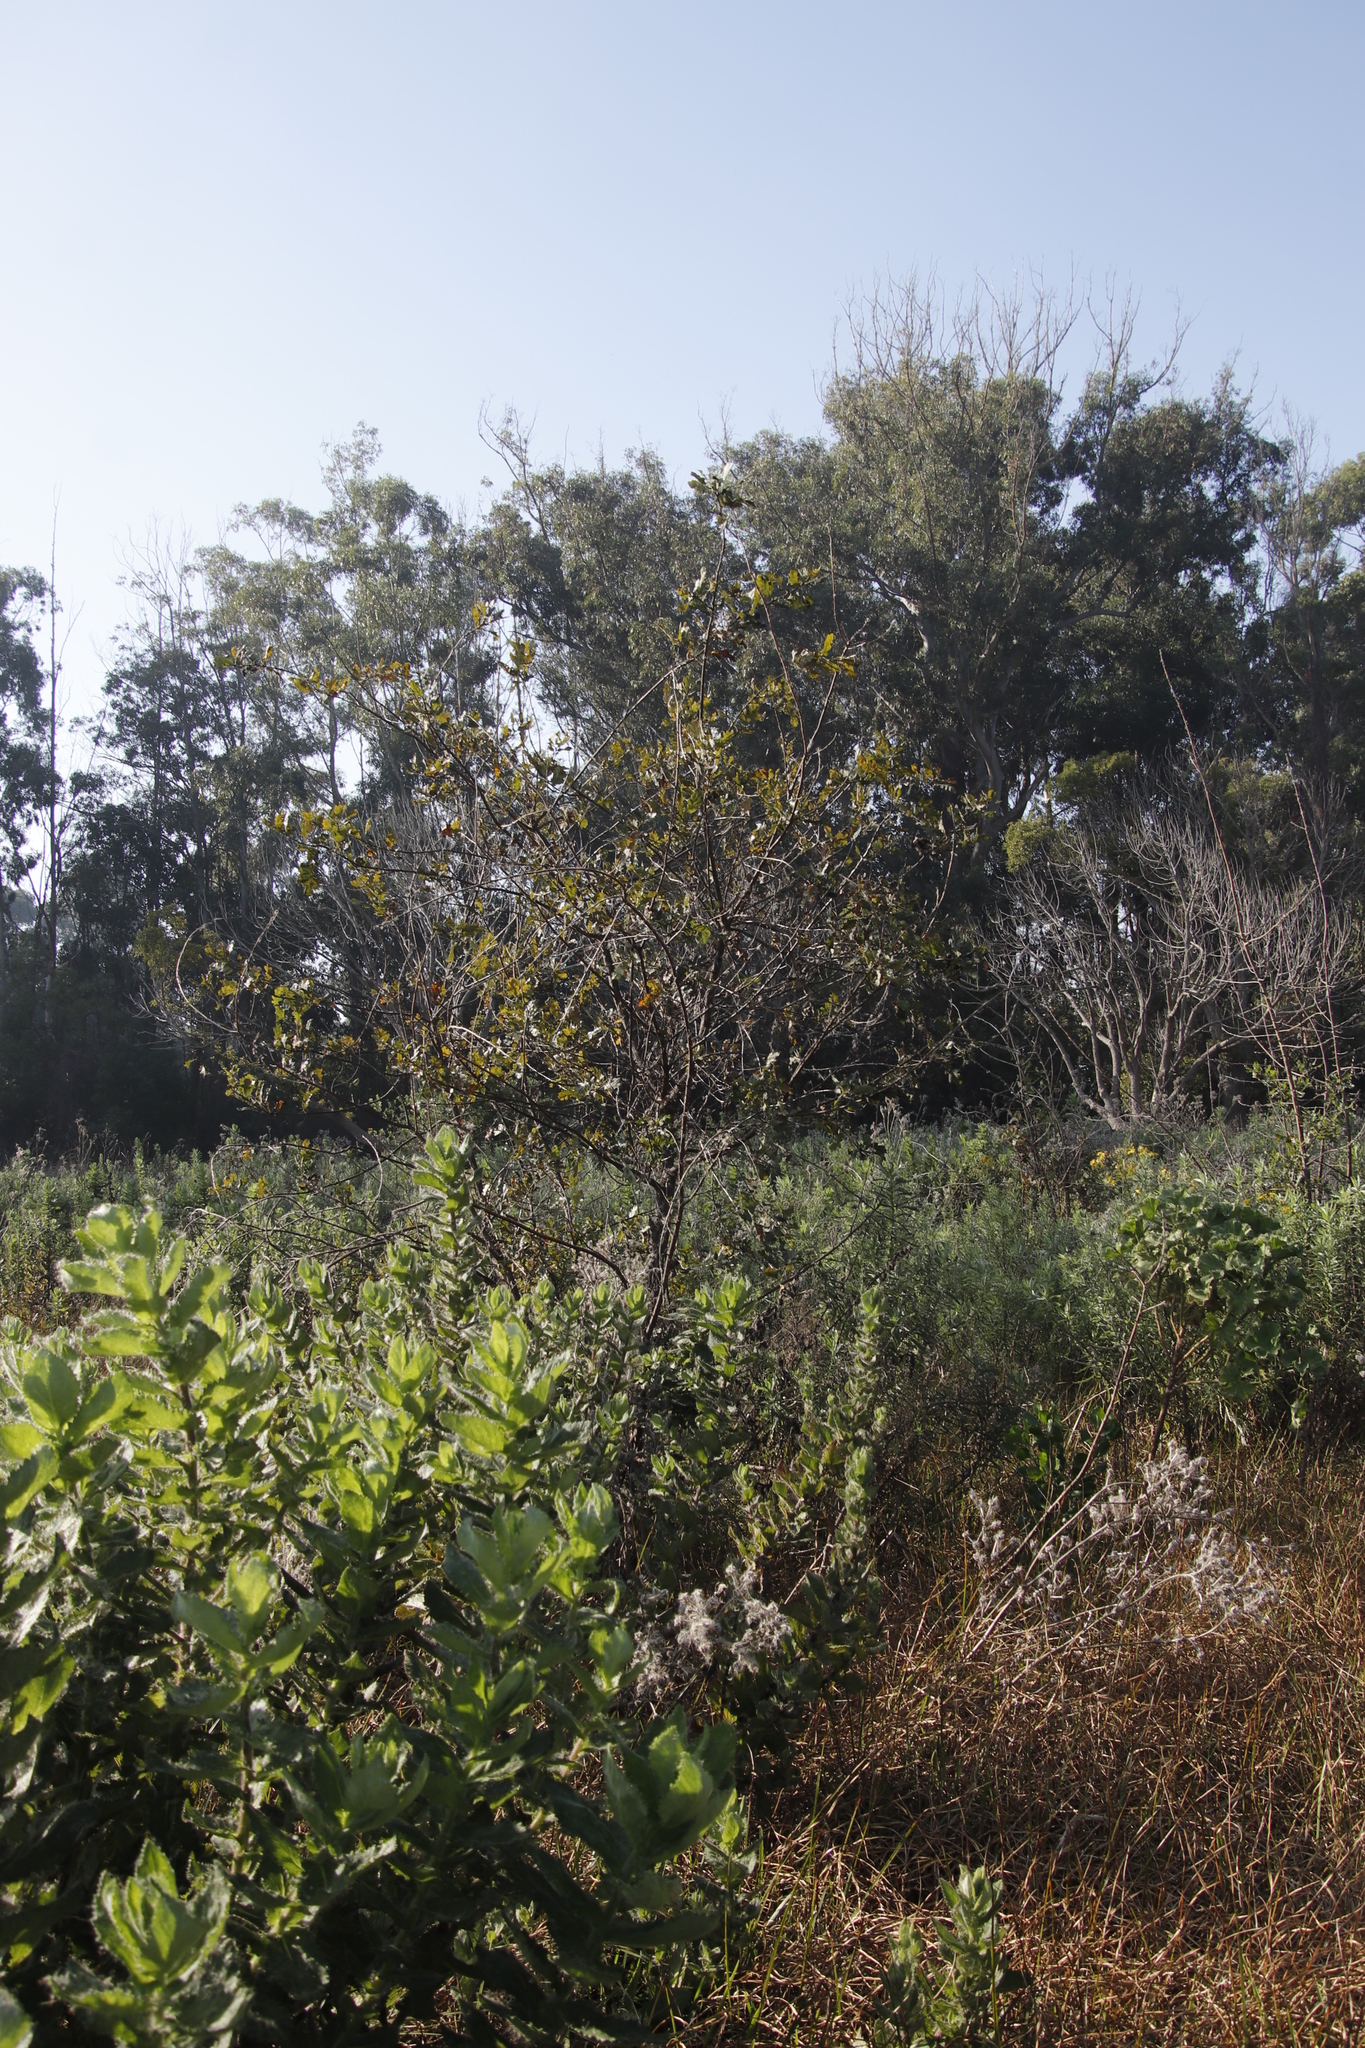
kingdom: Plantae
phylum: Tracheophyta
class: Magnoliopsida
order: Fagales
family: Fagaceae
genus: Quercus
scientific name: Quercus robur
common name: Pedunculate oak
